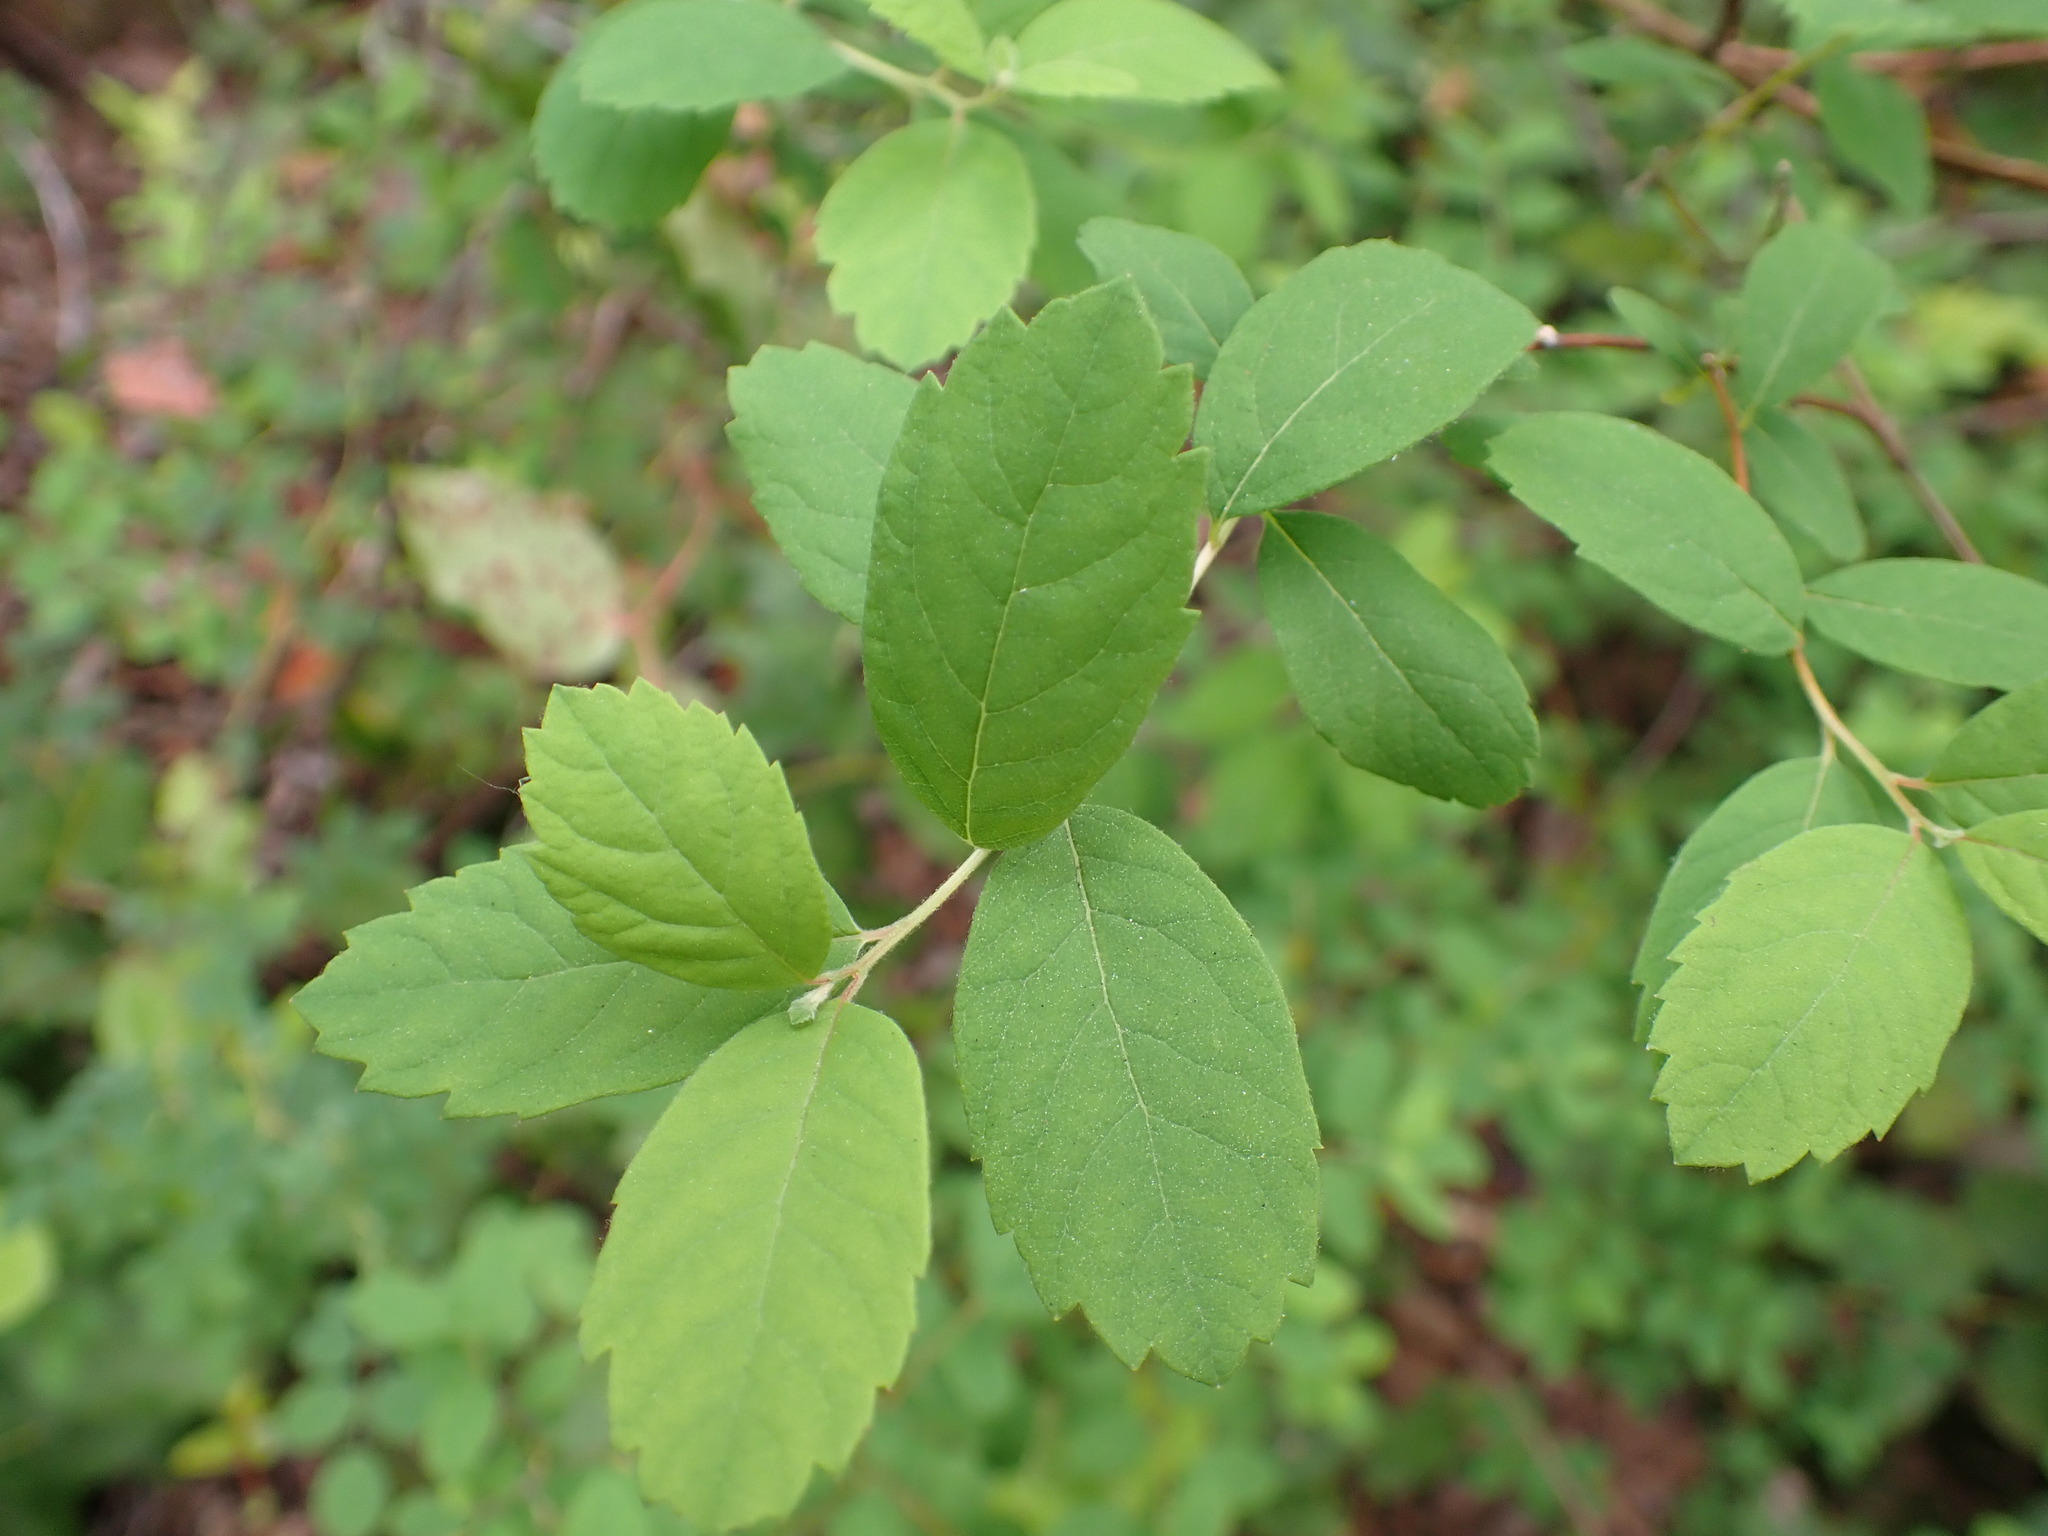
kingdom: Plantae
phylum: Tracheophyta
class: Magnoliopsida
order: Rosales
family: Rosaceae
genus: Spiraea
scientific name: Spiraea douglasii
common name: Steeplebush
